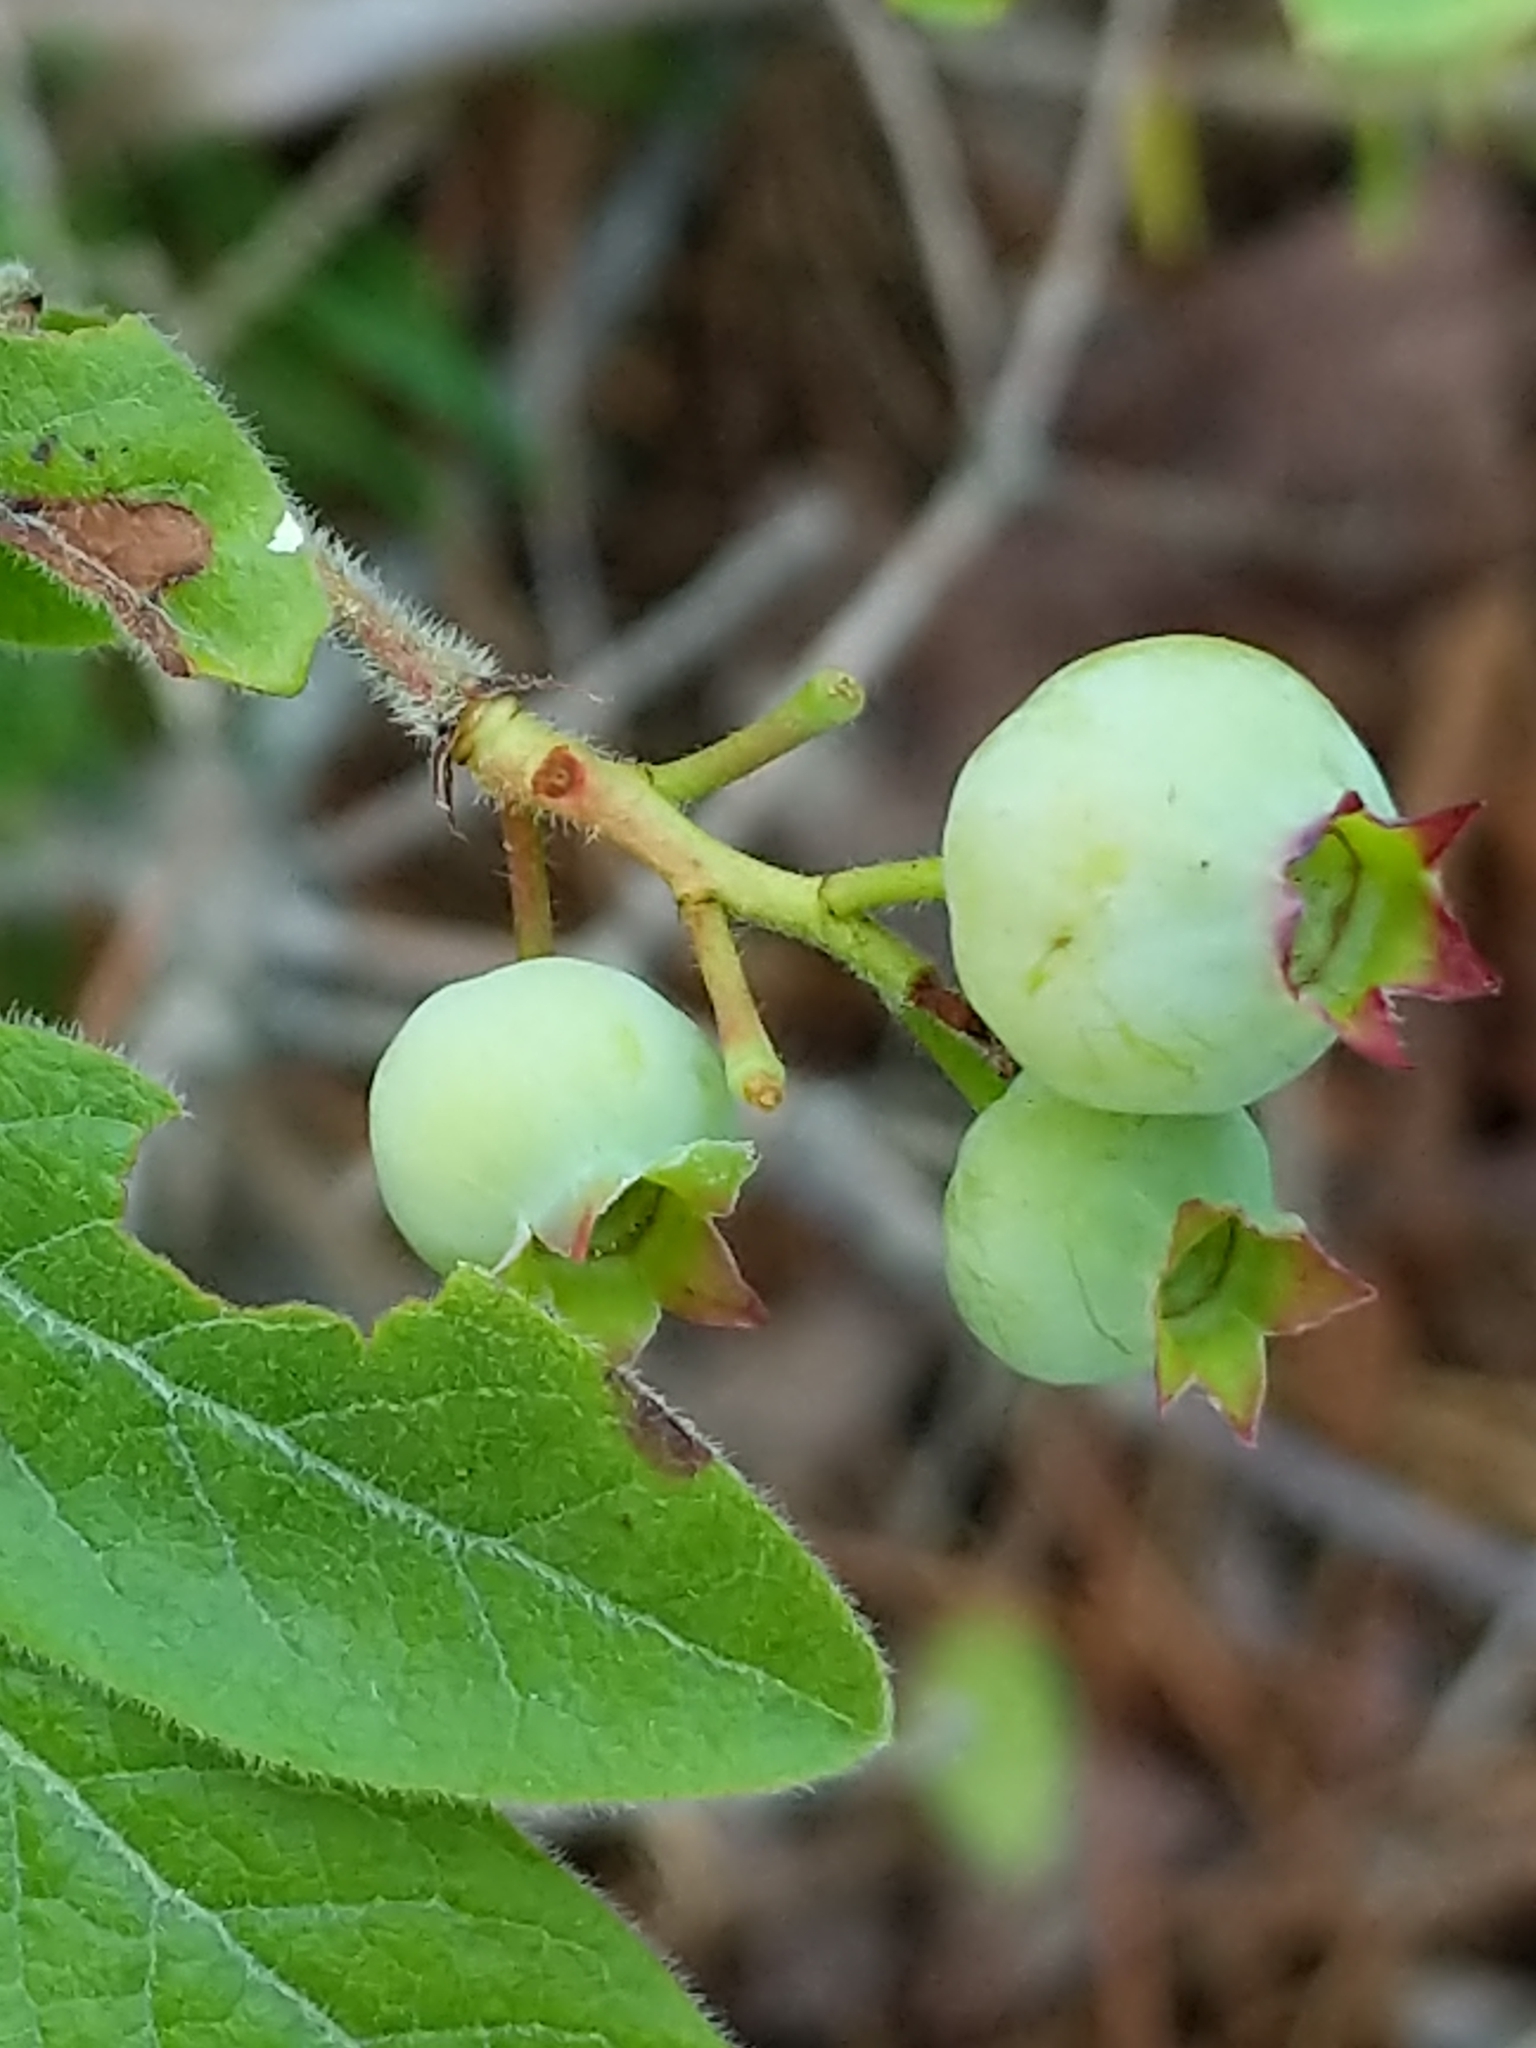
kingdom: Plantae
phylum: Tracheophyta
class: Magnoliopsida
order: Ericales
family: Ericaceae
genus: Vaccinium
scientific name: Vaccinium myrtilloides
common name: Canada blueberry
